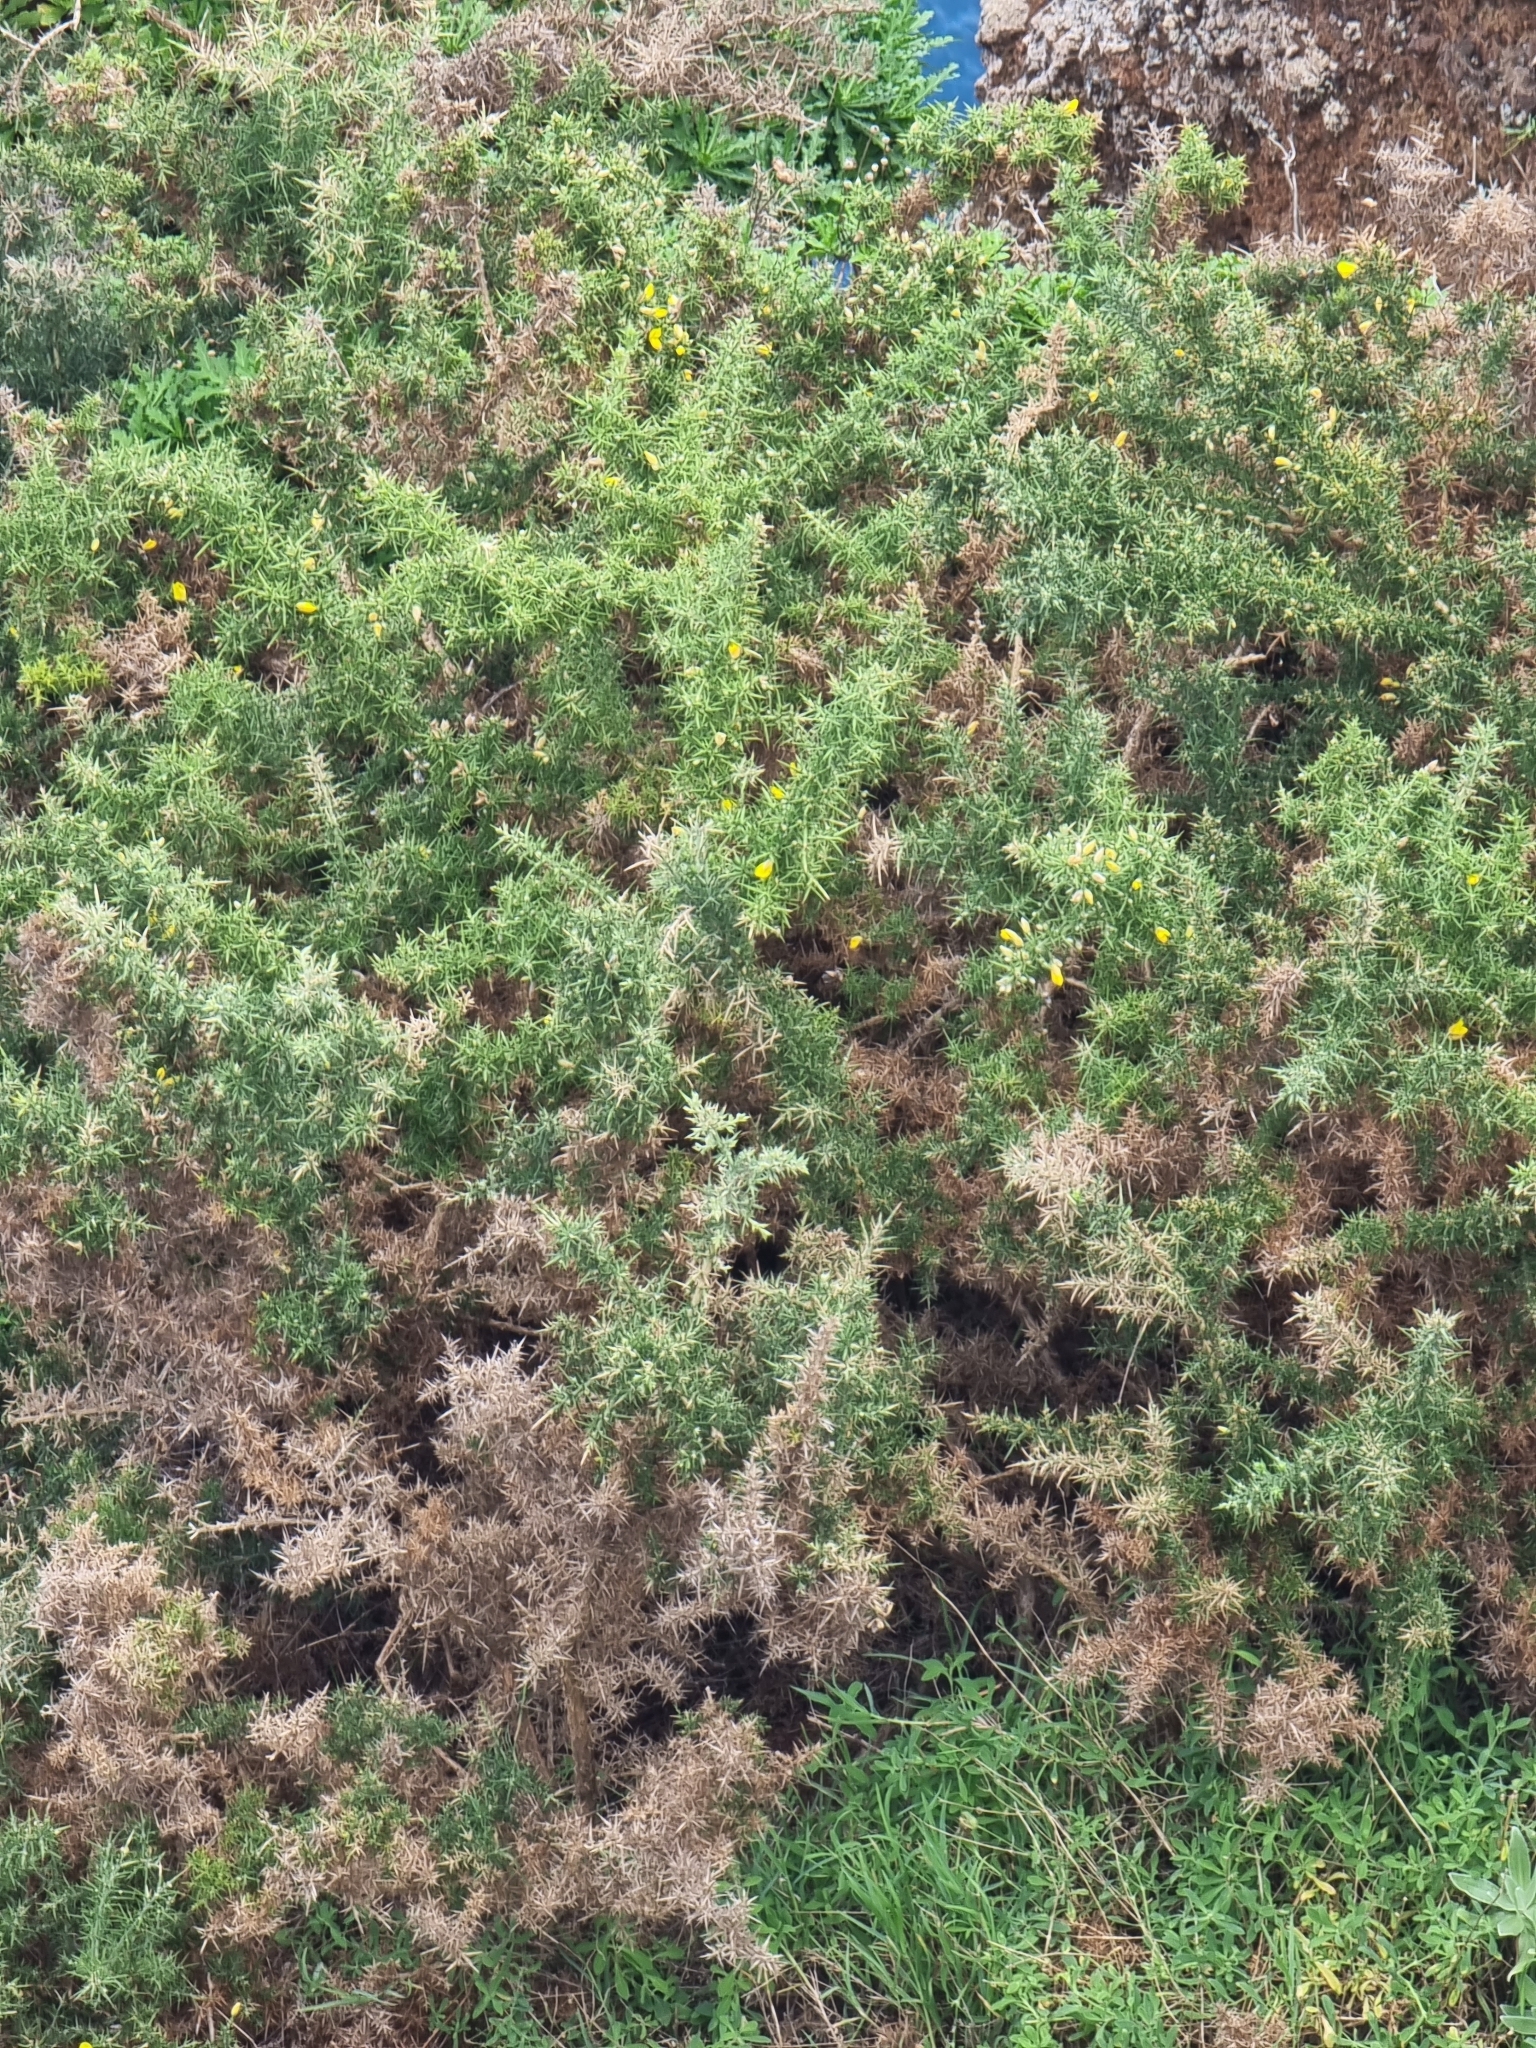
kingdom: Plantae
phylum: Tracheophyta
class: Magnoliopsida
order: Fabales
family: Fabaceae
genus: Ulex
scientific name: Ulex europaeus
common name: Common gorse
